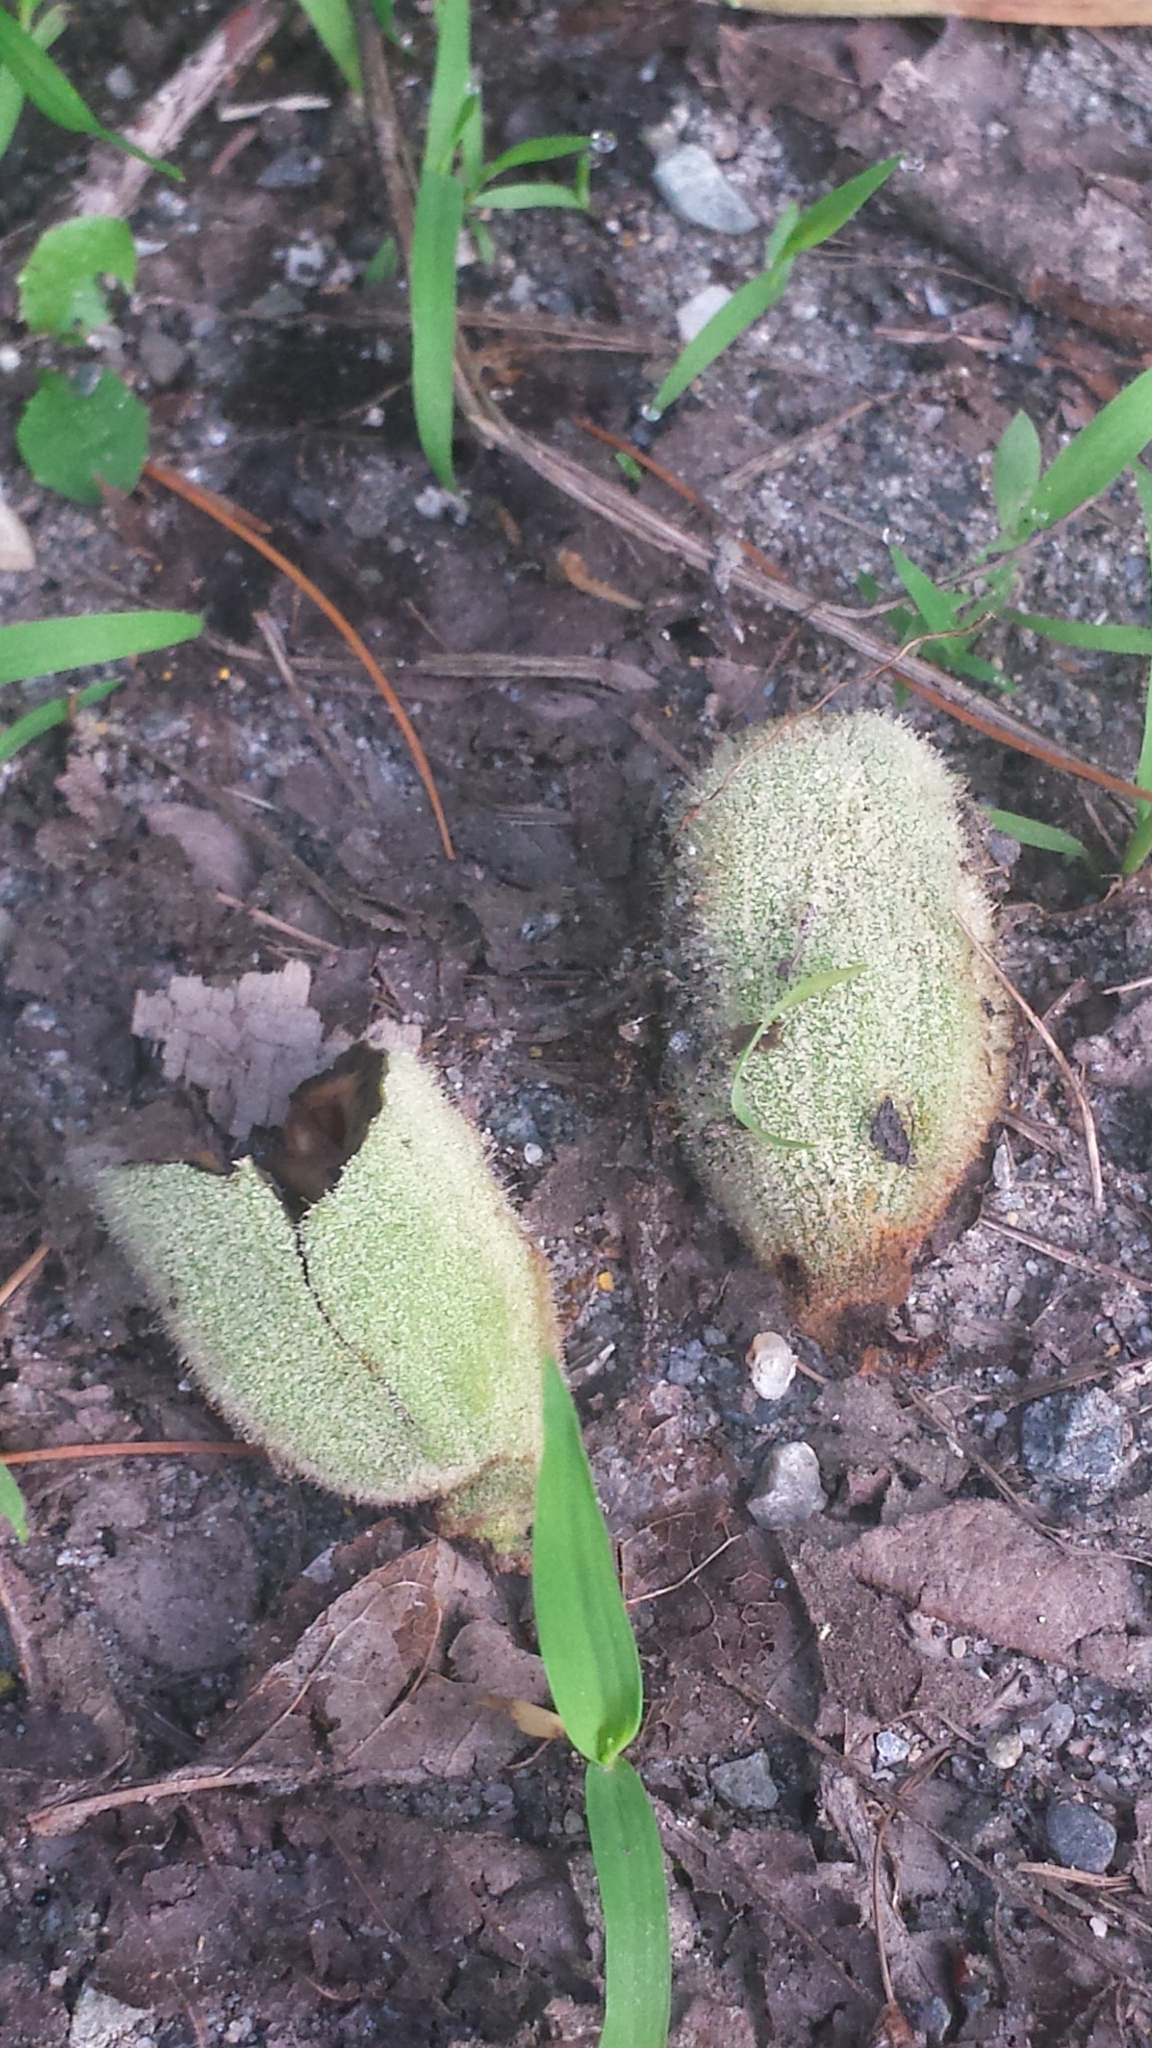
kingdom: Plantae
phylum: Tracheophyta
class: Magnoliopsida
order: Fagales
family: Juglandaceae
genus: Juglans
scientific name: Juglans cinerea
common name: Butternut
